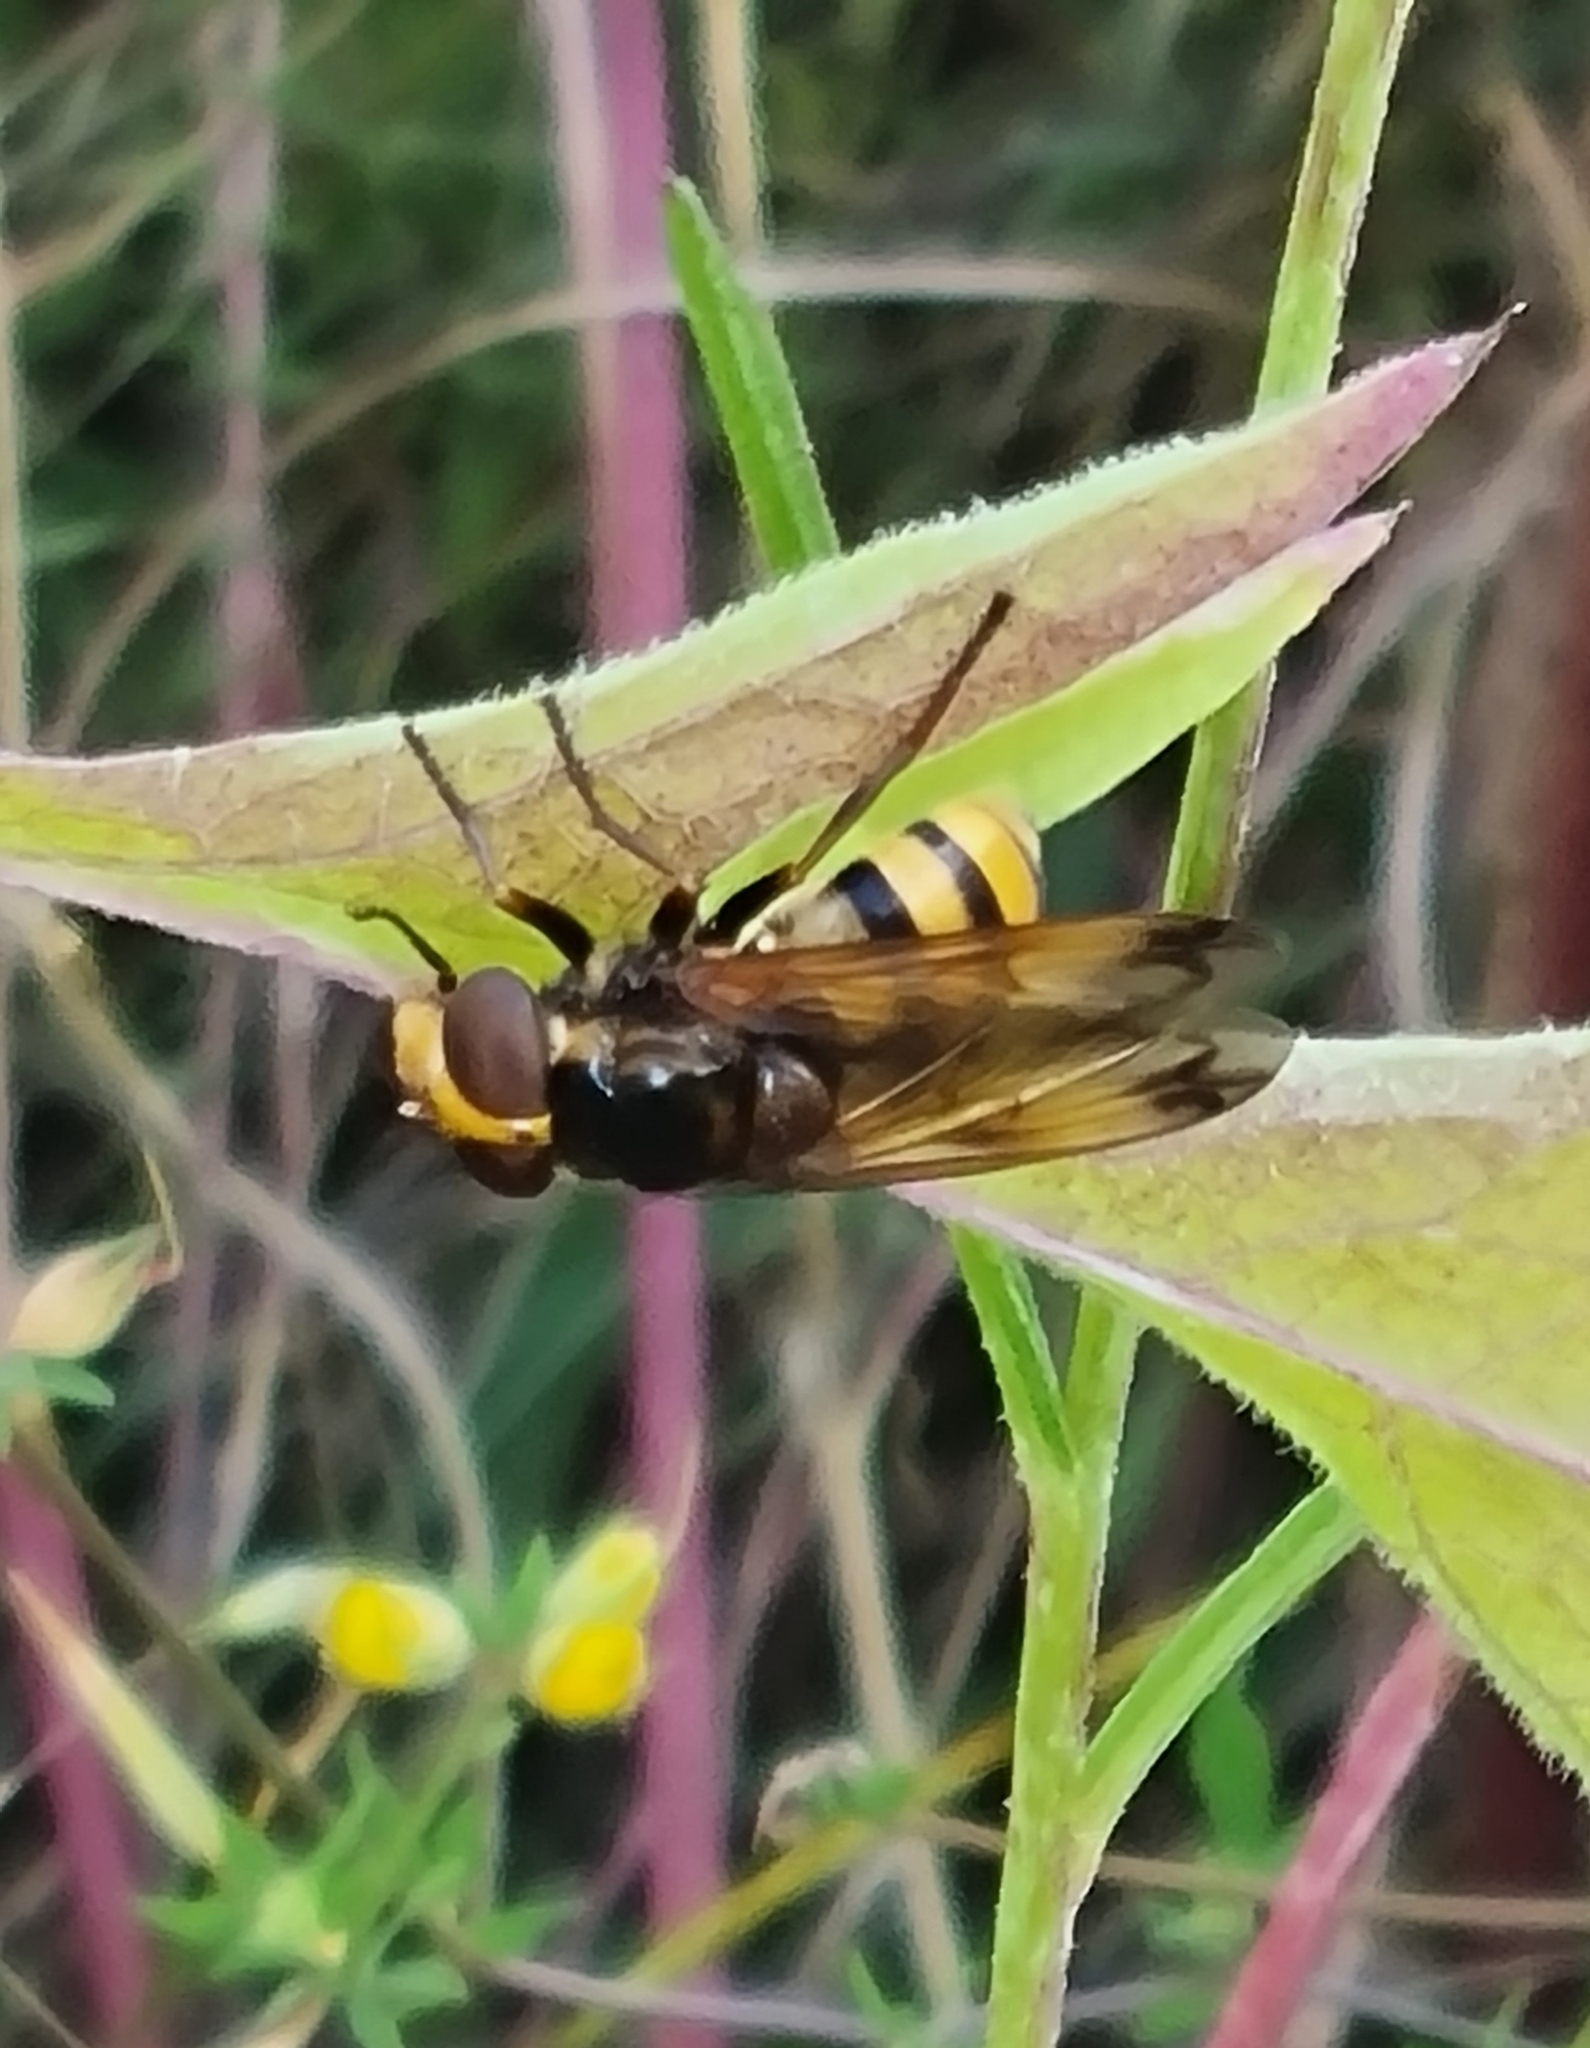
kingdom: Animalia
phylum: Arthropoda
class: Insecta
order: Diptera
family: Syrphidae
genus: Volucella
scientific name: Volucella inanis
